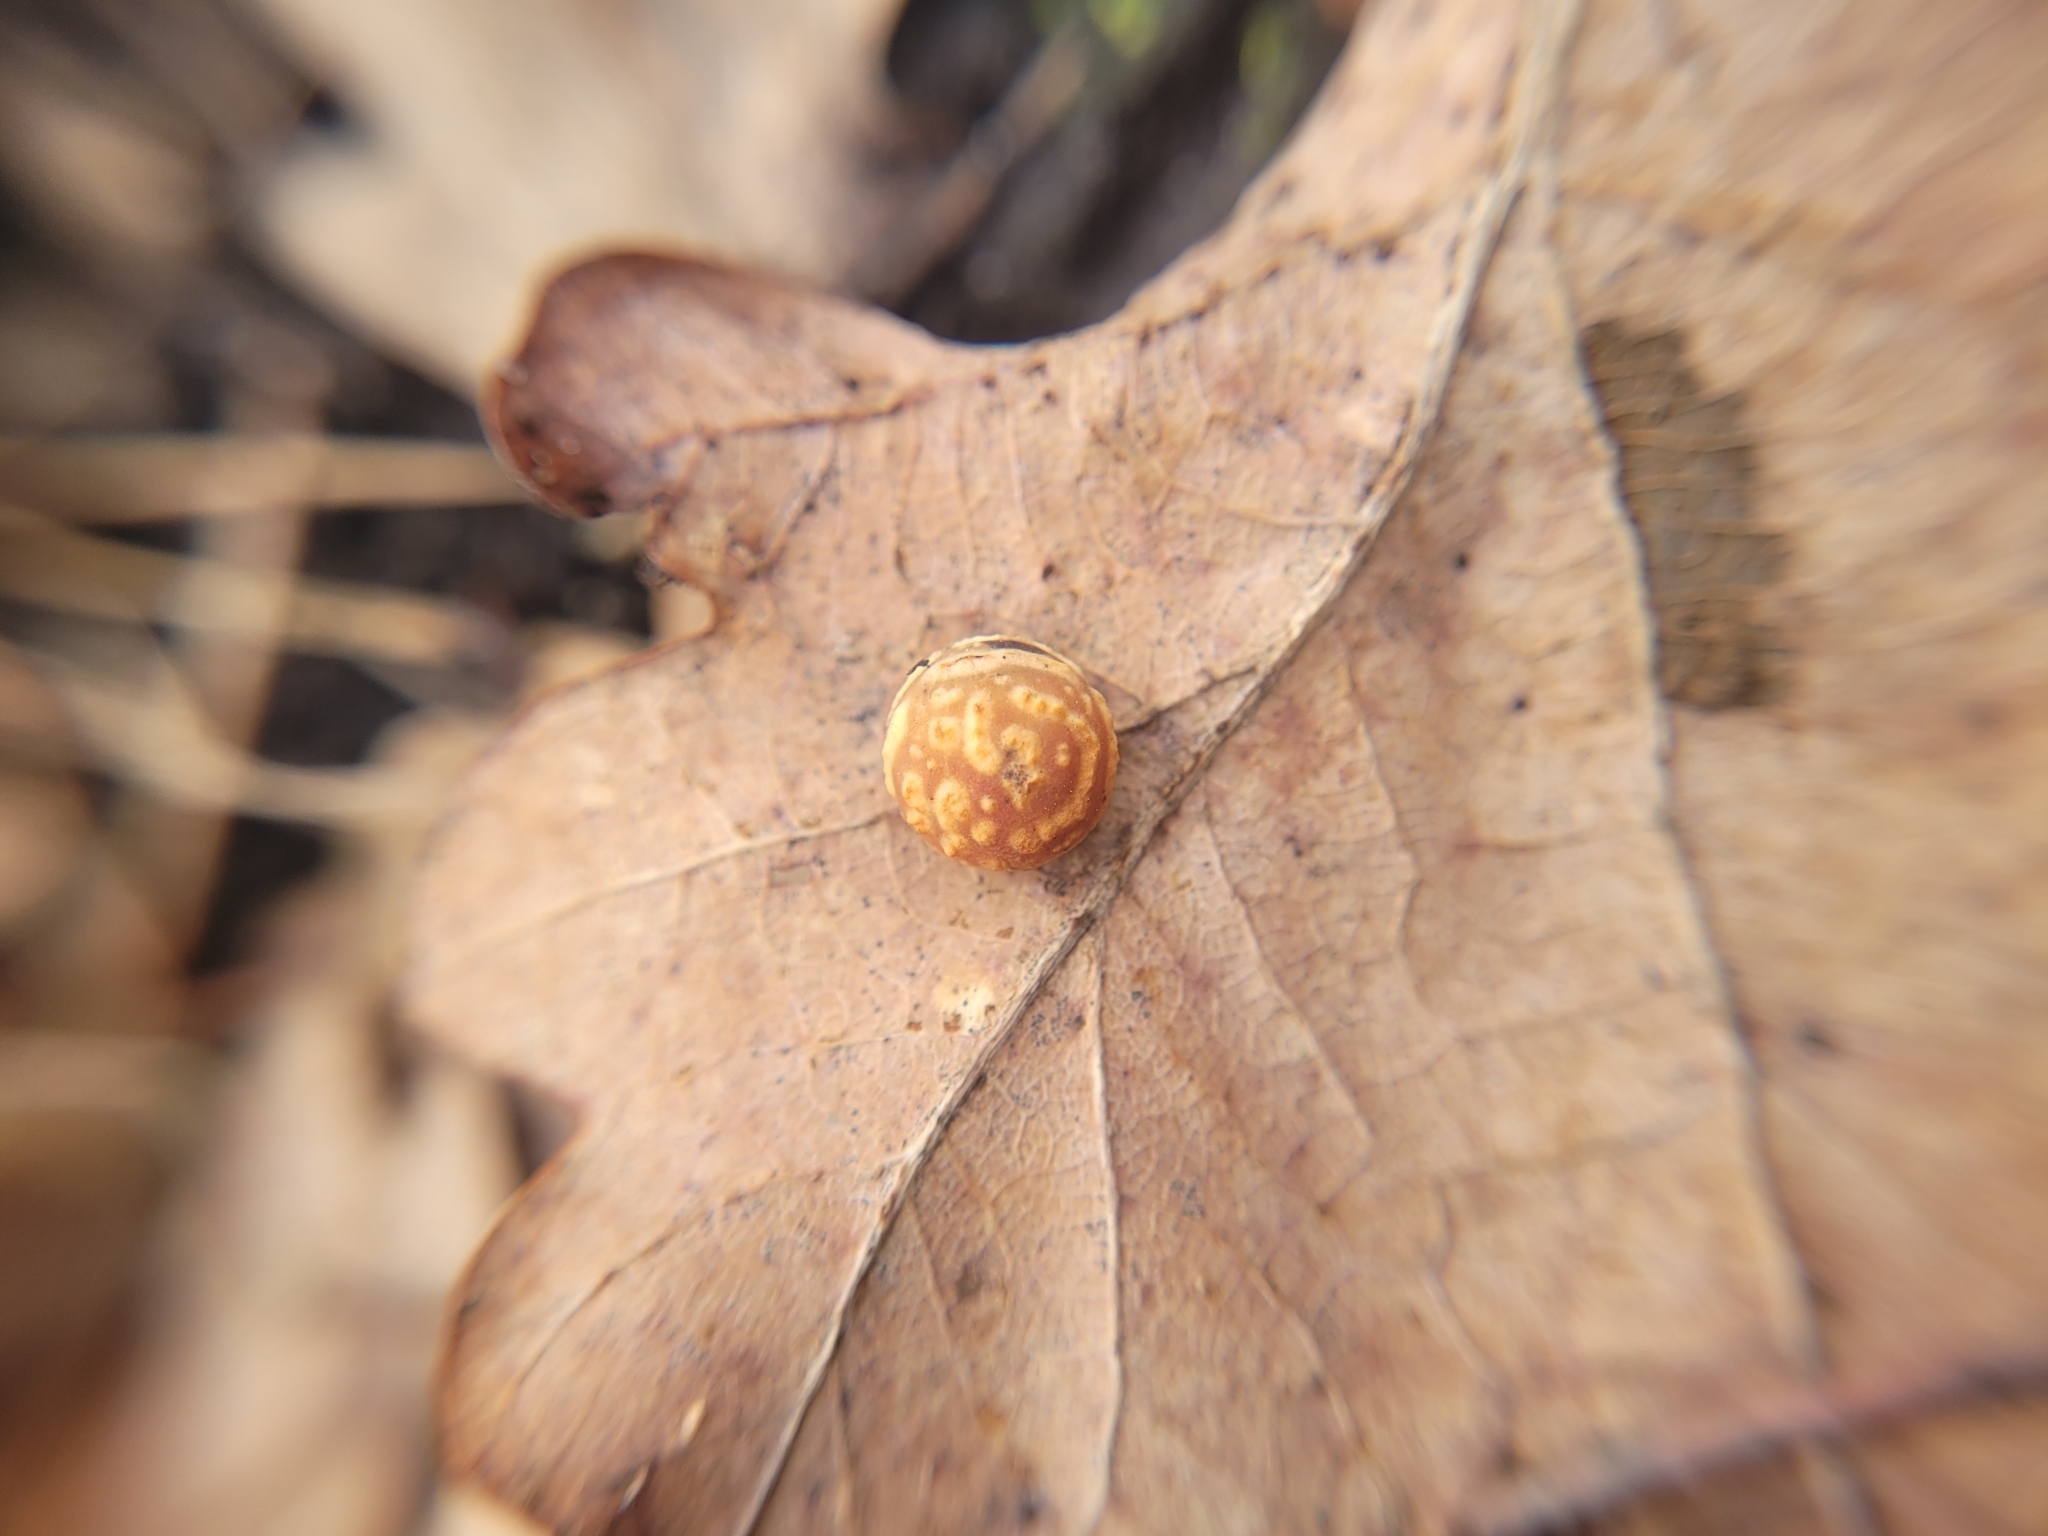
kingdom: Animalia
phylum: Arthropoda
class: Insecta
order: Hymenoptera
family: Cynipidae
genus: Cynips
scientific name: Cynips longiventris
